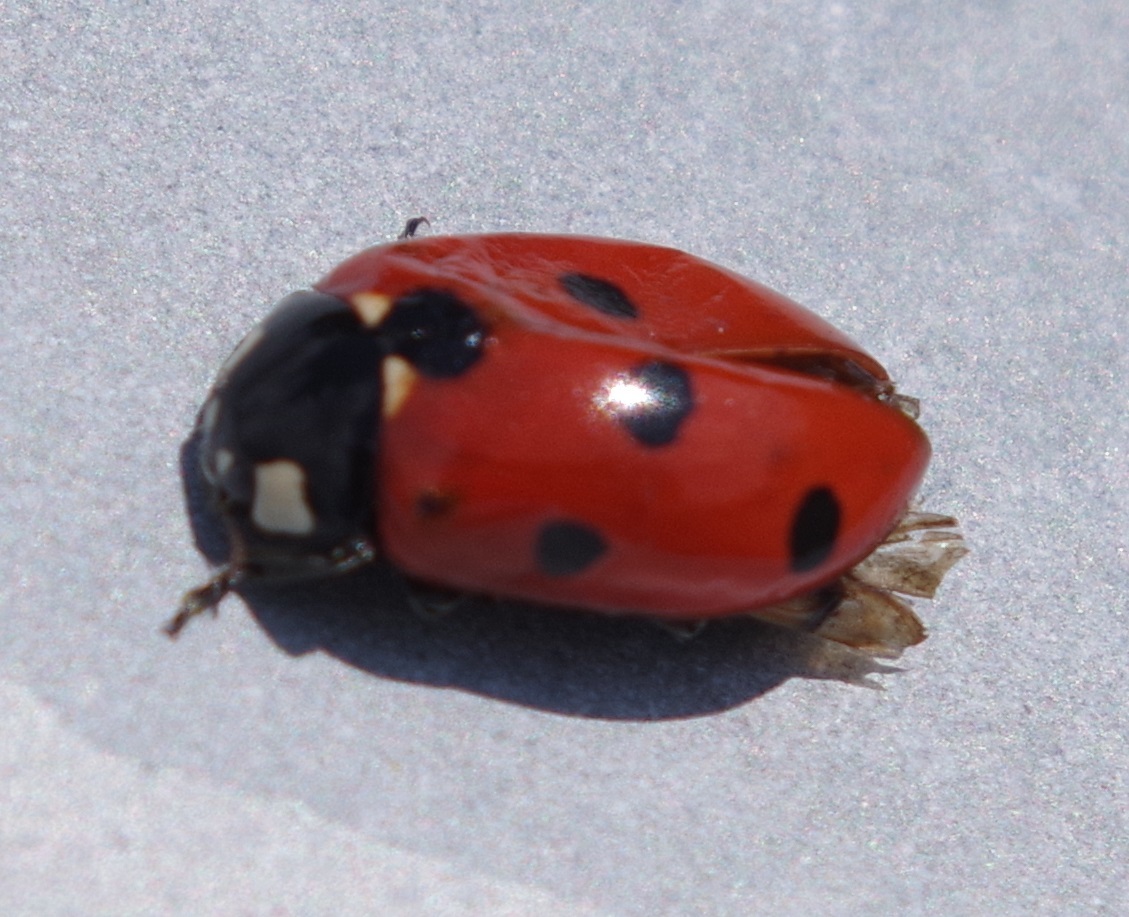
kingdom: Animalia
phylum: Arthropoda
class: Insecta
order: Coleoptera
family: Coccinellidae
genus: Coccinella
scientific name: Coccinella septempunctata
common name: Sevenspotted lady beetle
